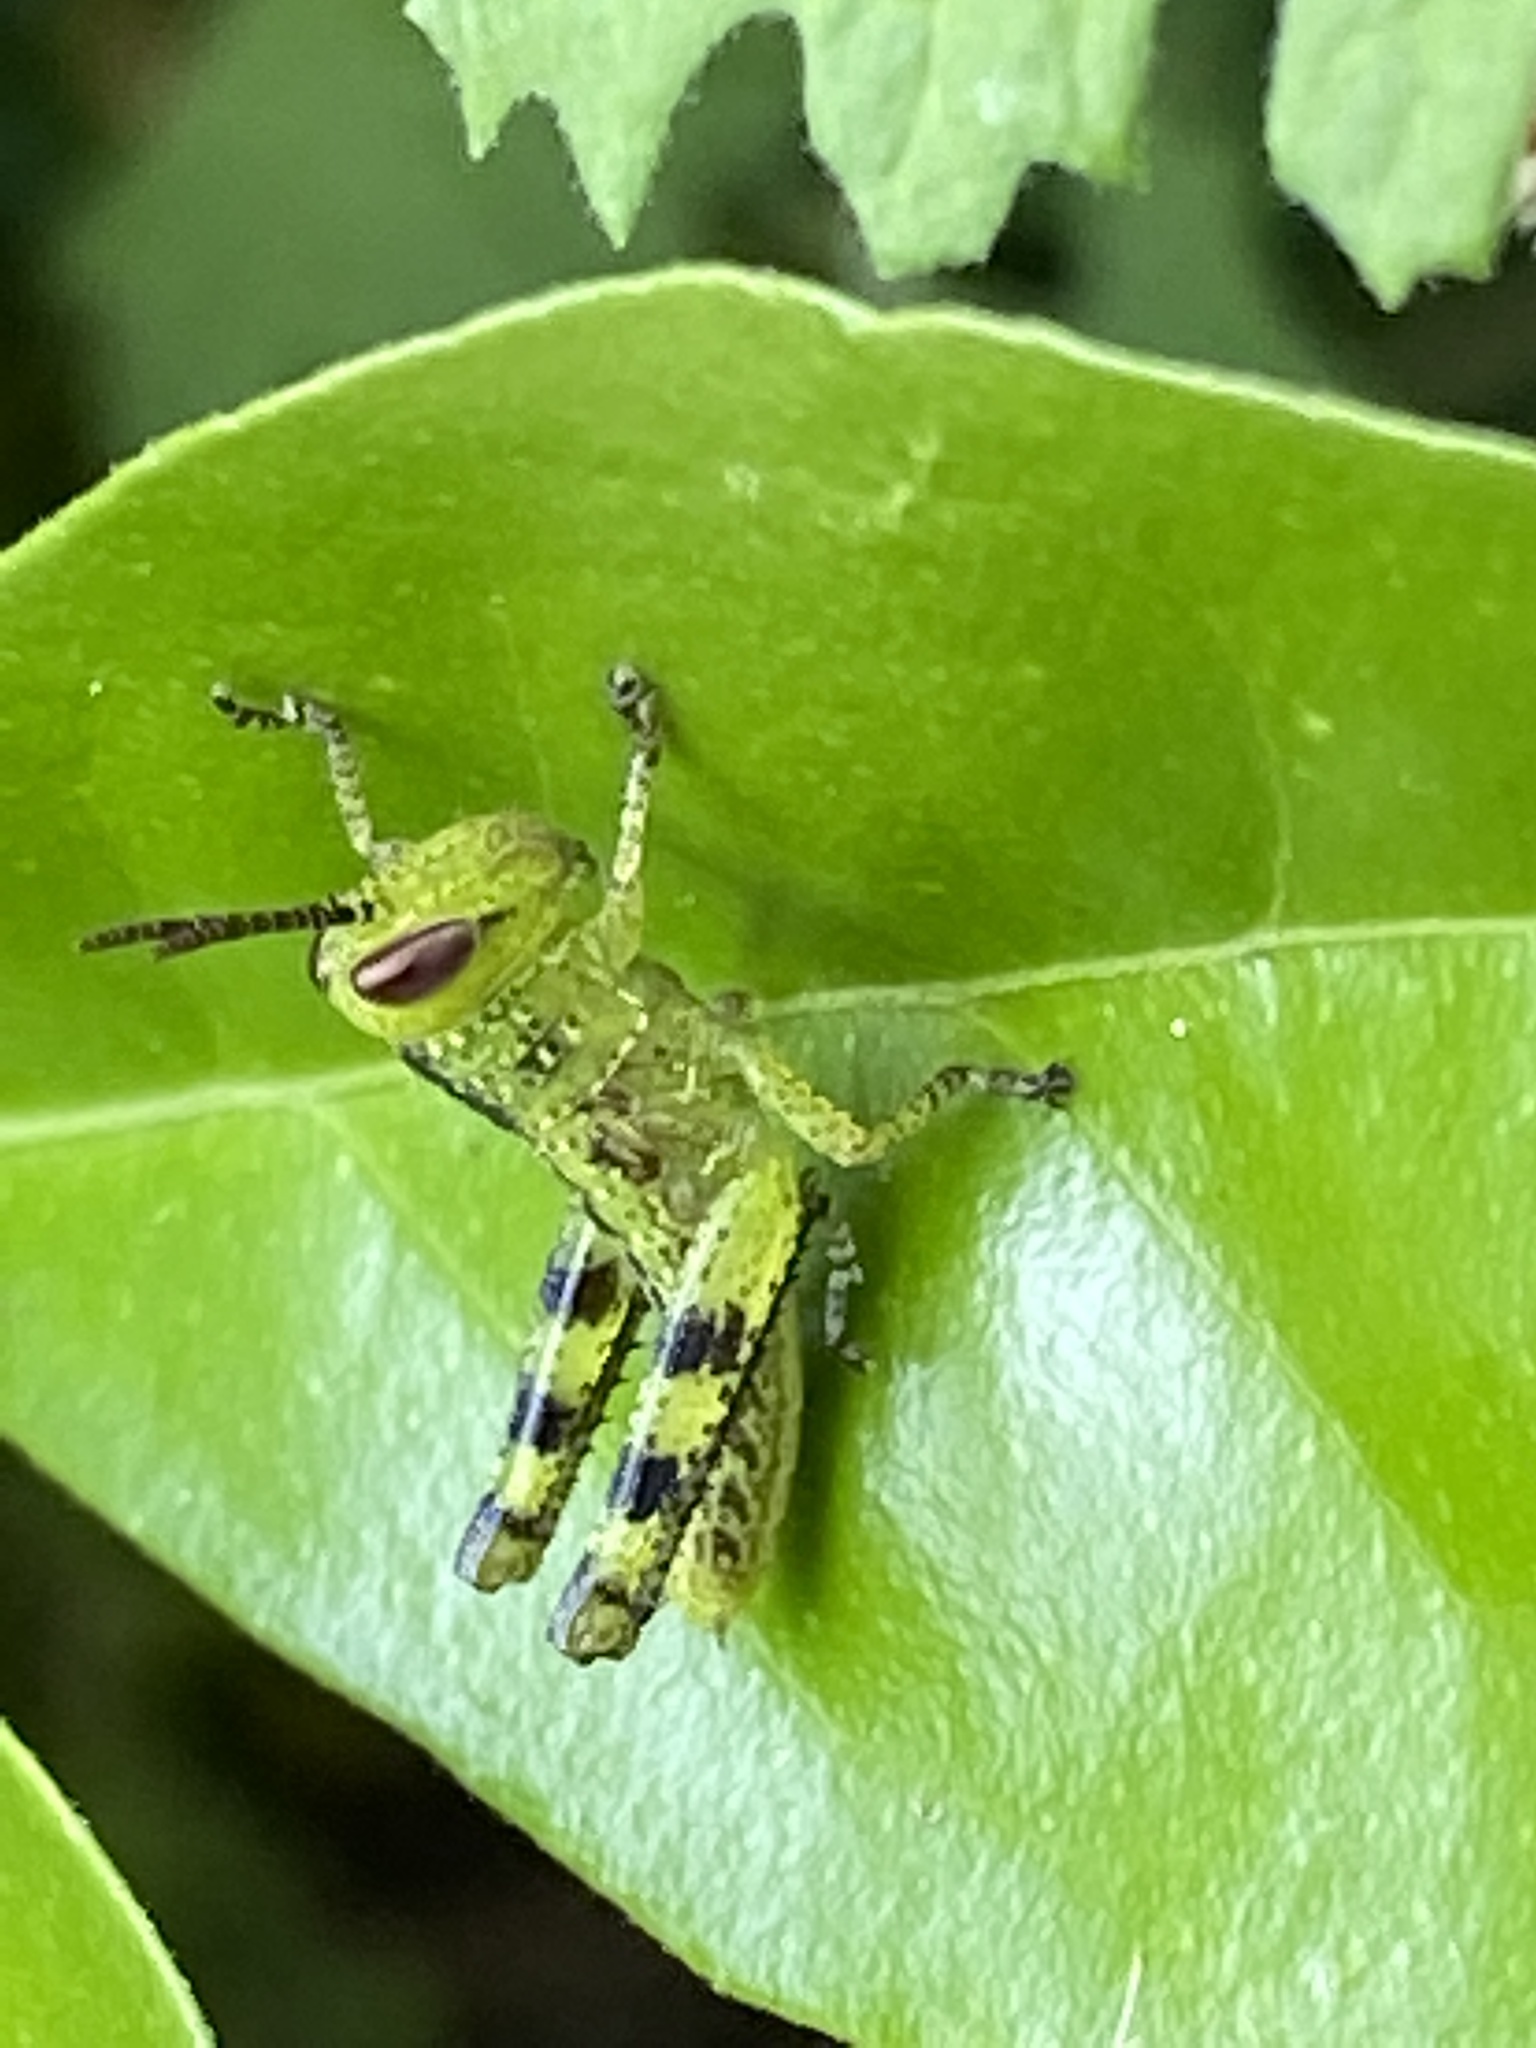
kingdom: Animalia
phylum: Arthropoda
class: Insecta
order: Orthoptera
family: Acrididae
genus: Valanga
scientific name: Valanga irregularis
